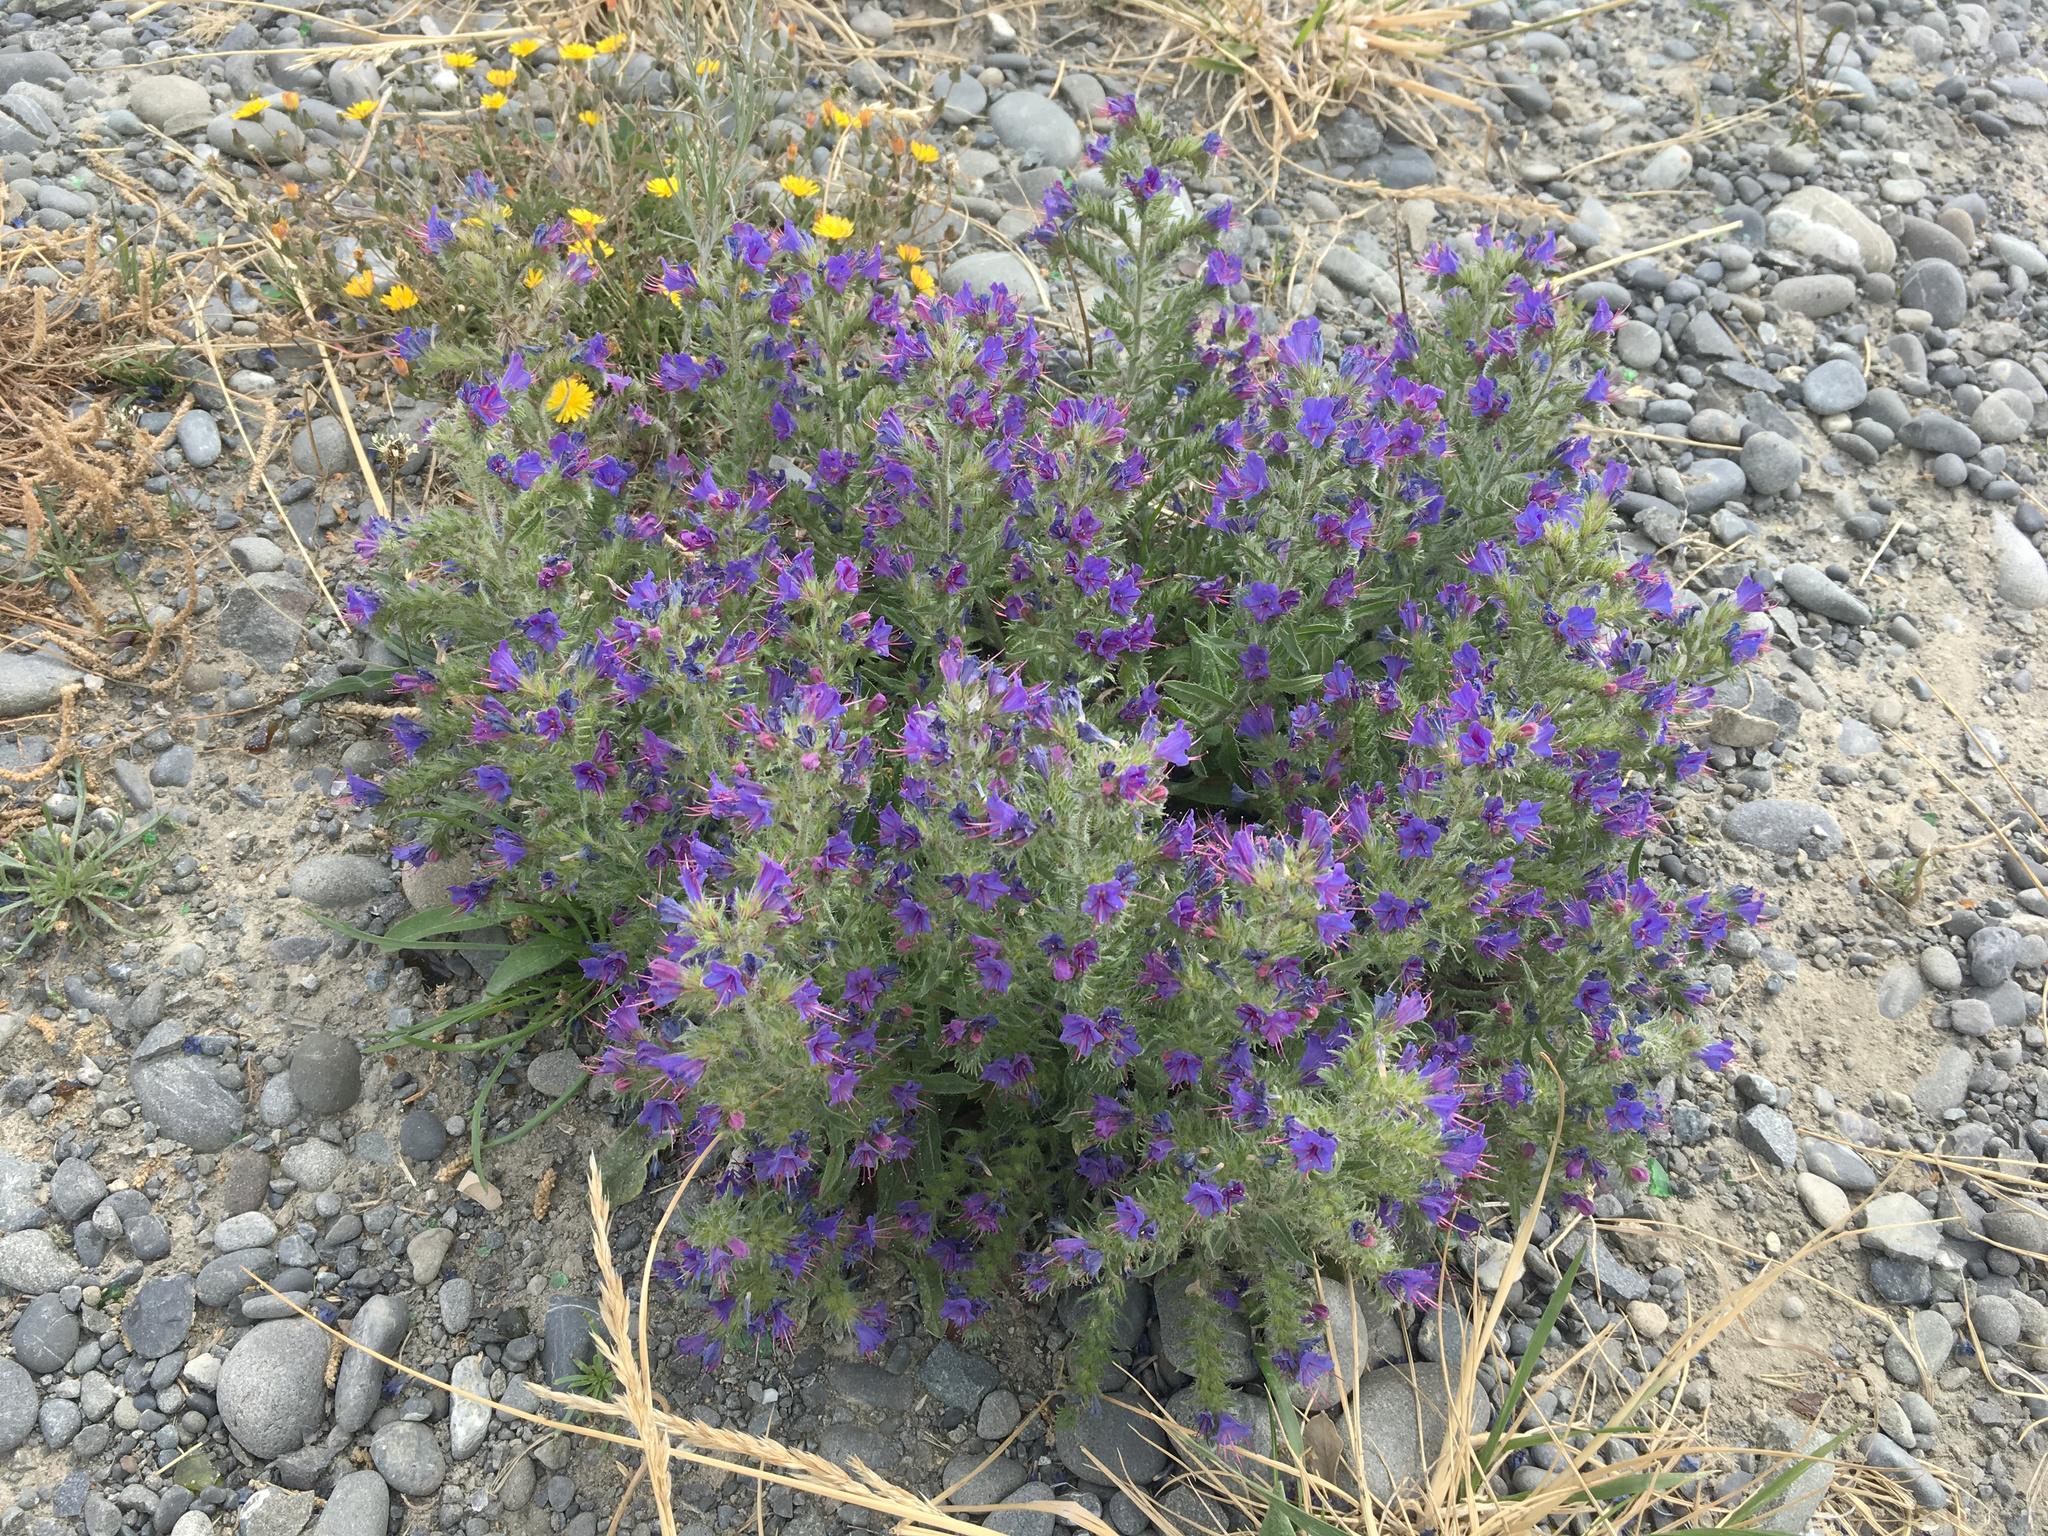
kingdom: Plantae
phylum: Tracheophyta
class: Magnoliopsida
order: Boraginales
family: Boraginaceae
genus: Echium
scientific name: Echium vulgare
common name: Common viper's bugloss
